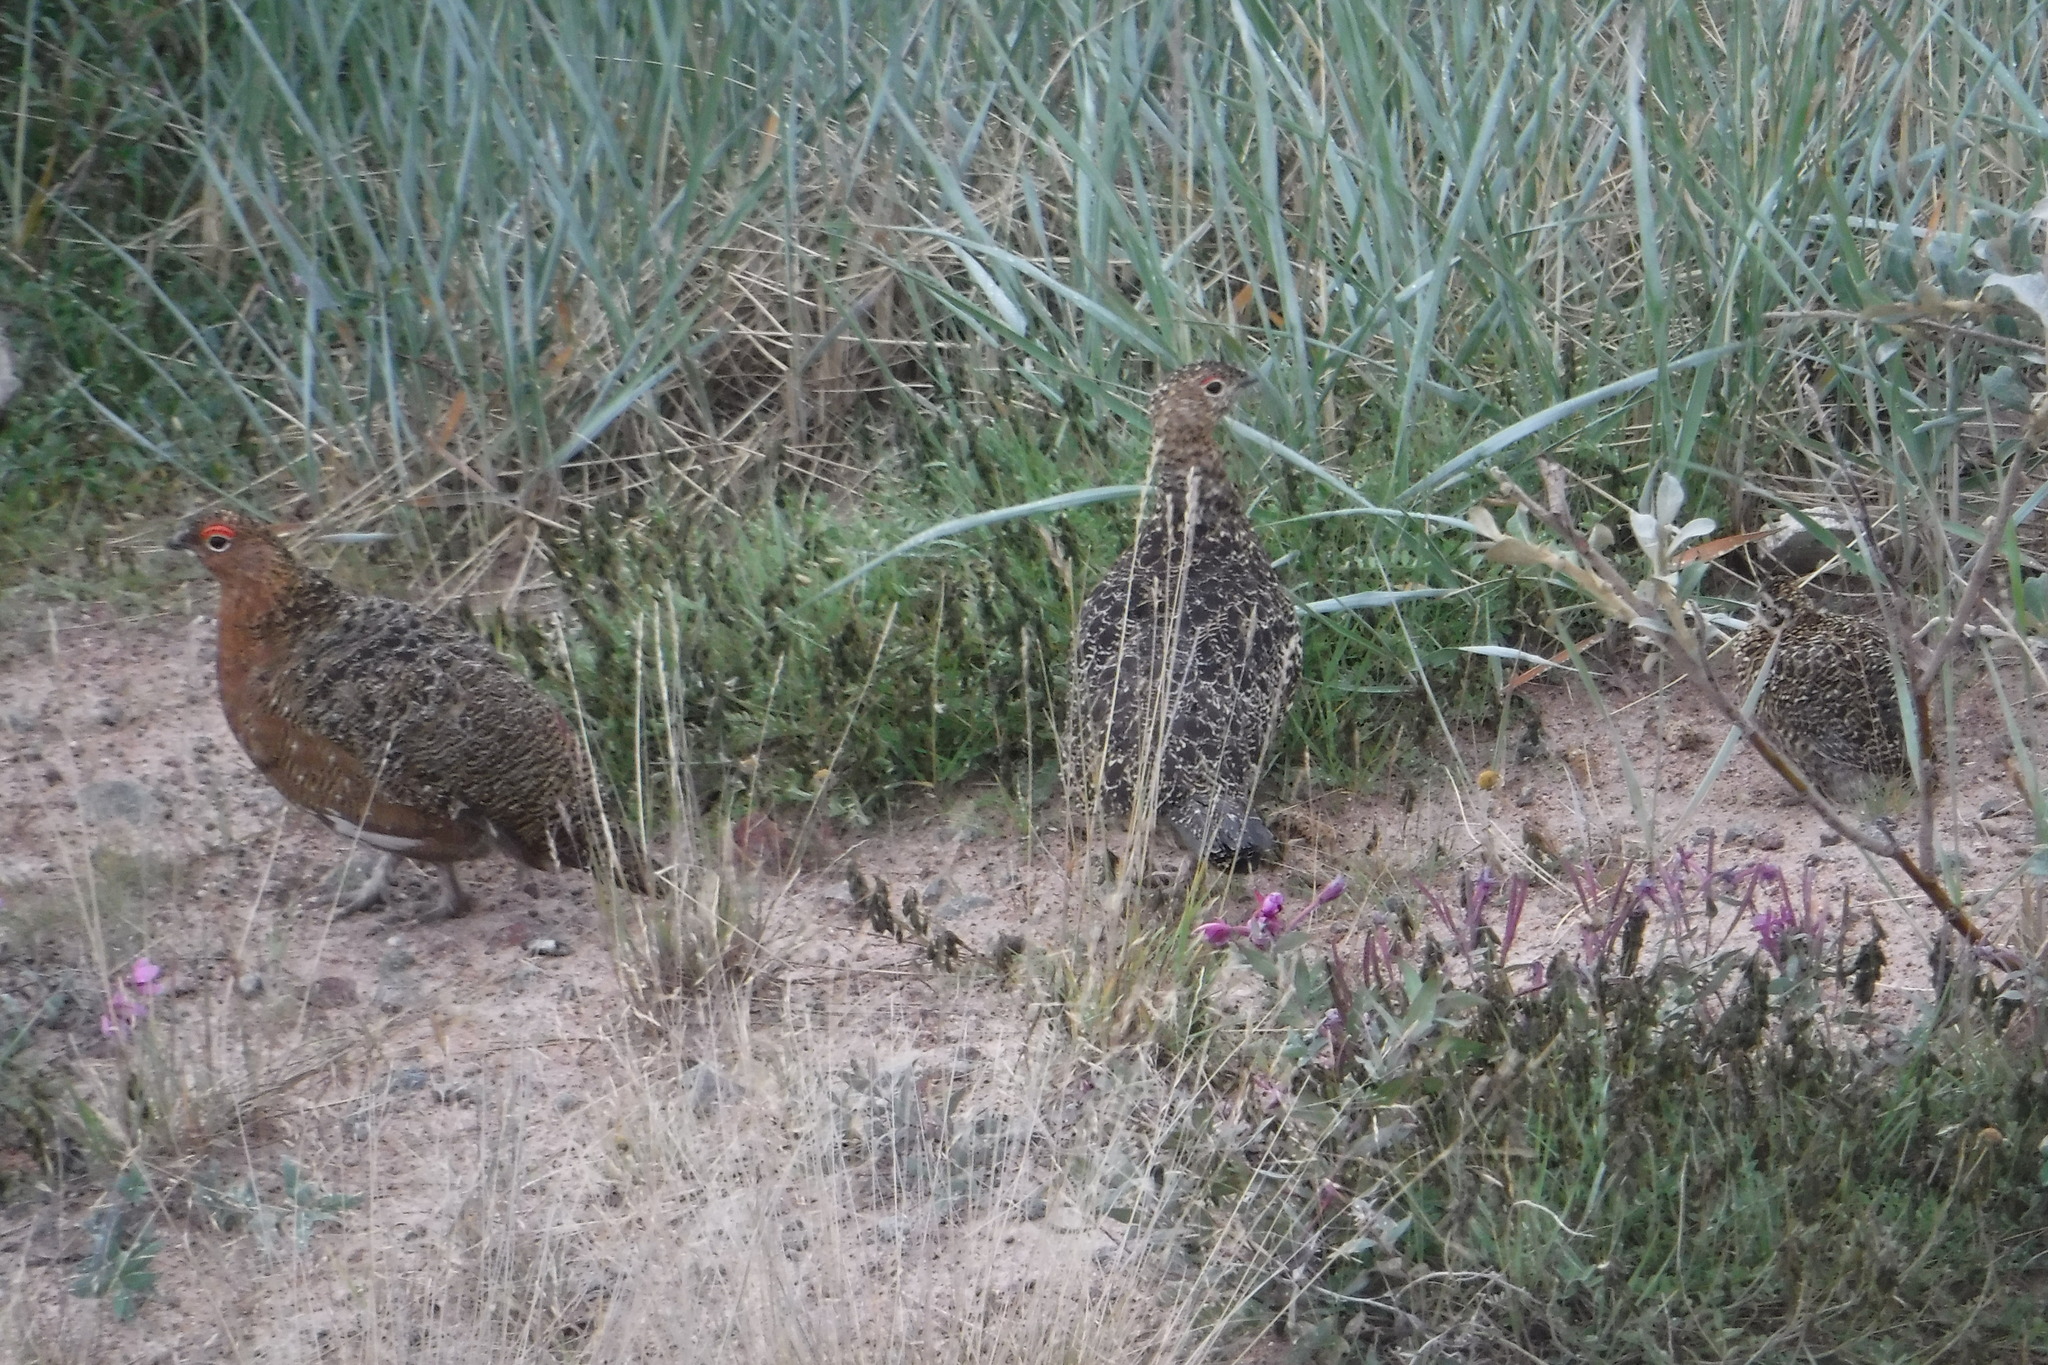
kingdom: Animalia
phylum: Chordata
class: Aves
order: Galliformes
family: Phasianidae
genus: Lagopus
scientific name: Lagopus lagopus
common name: Willow ptarmigan
